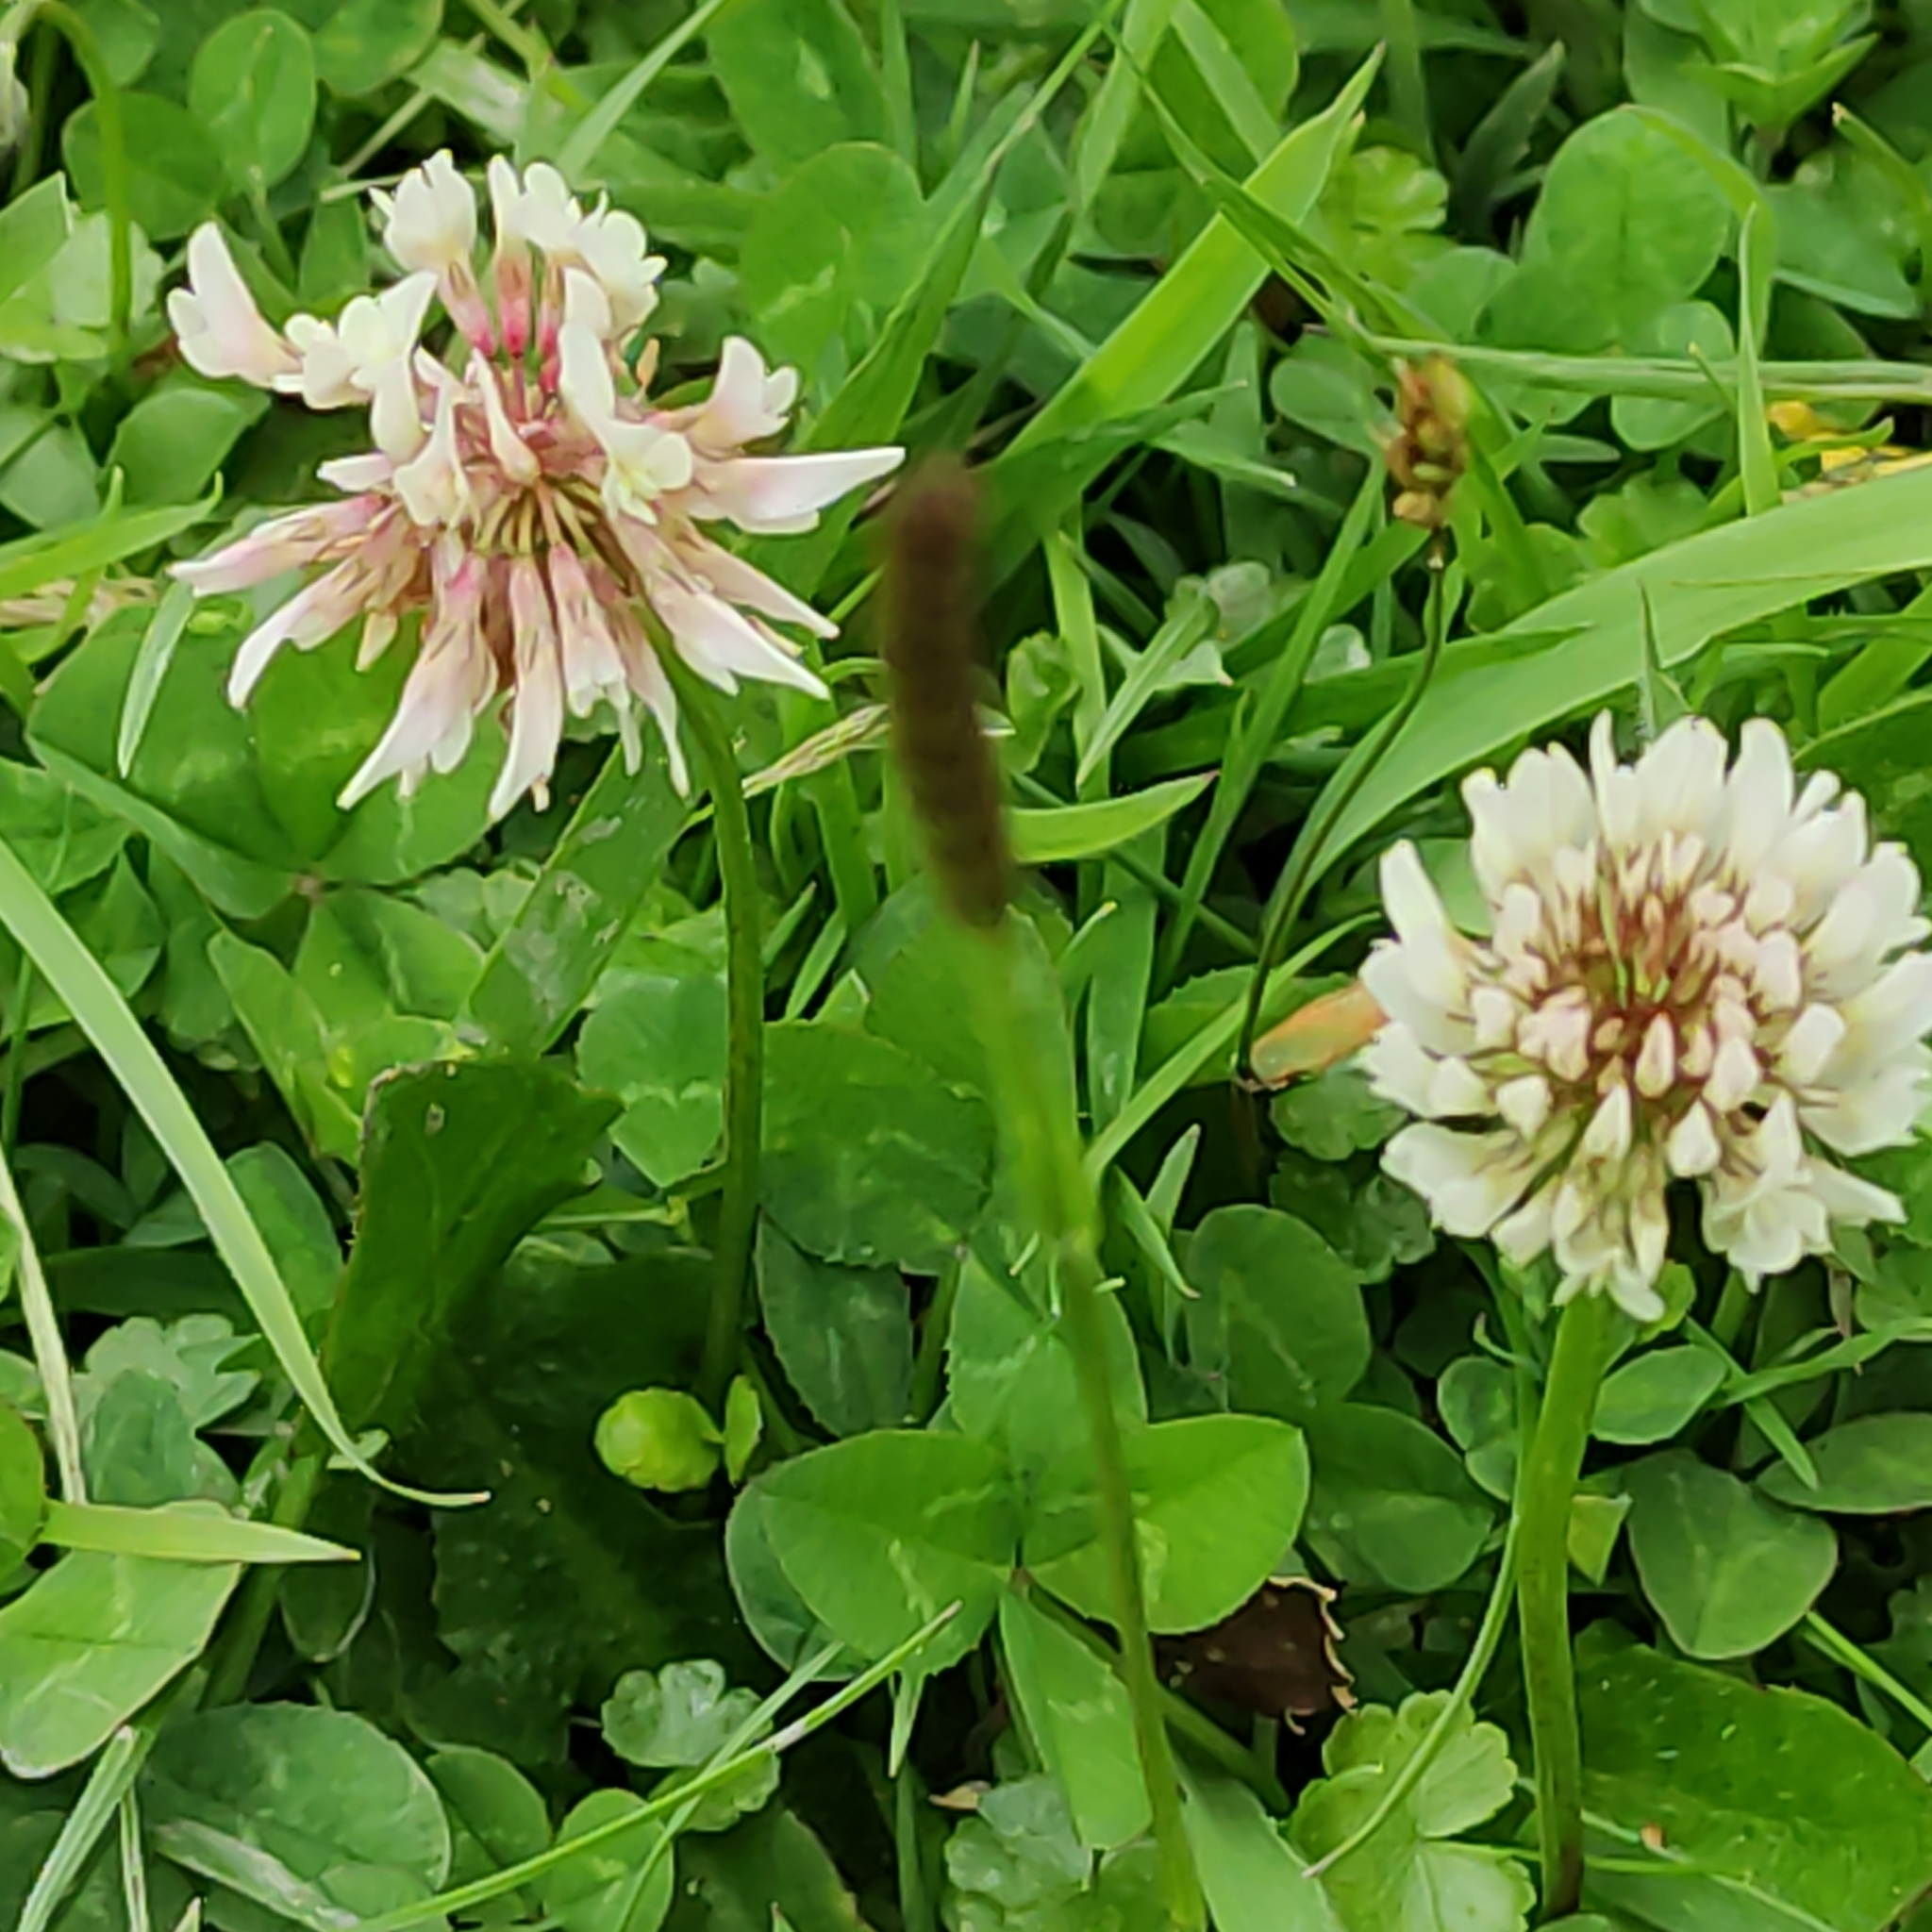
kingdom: Plantae
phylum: Tracheophyta
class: Magnoliopsida
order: Fabales
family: Fabaceae
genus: Trifolium
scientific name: Trifolium repens
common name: White clover
